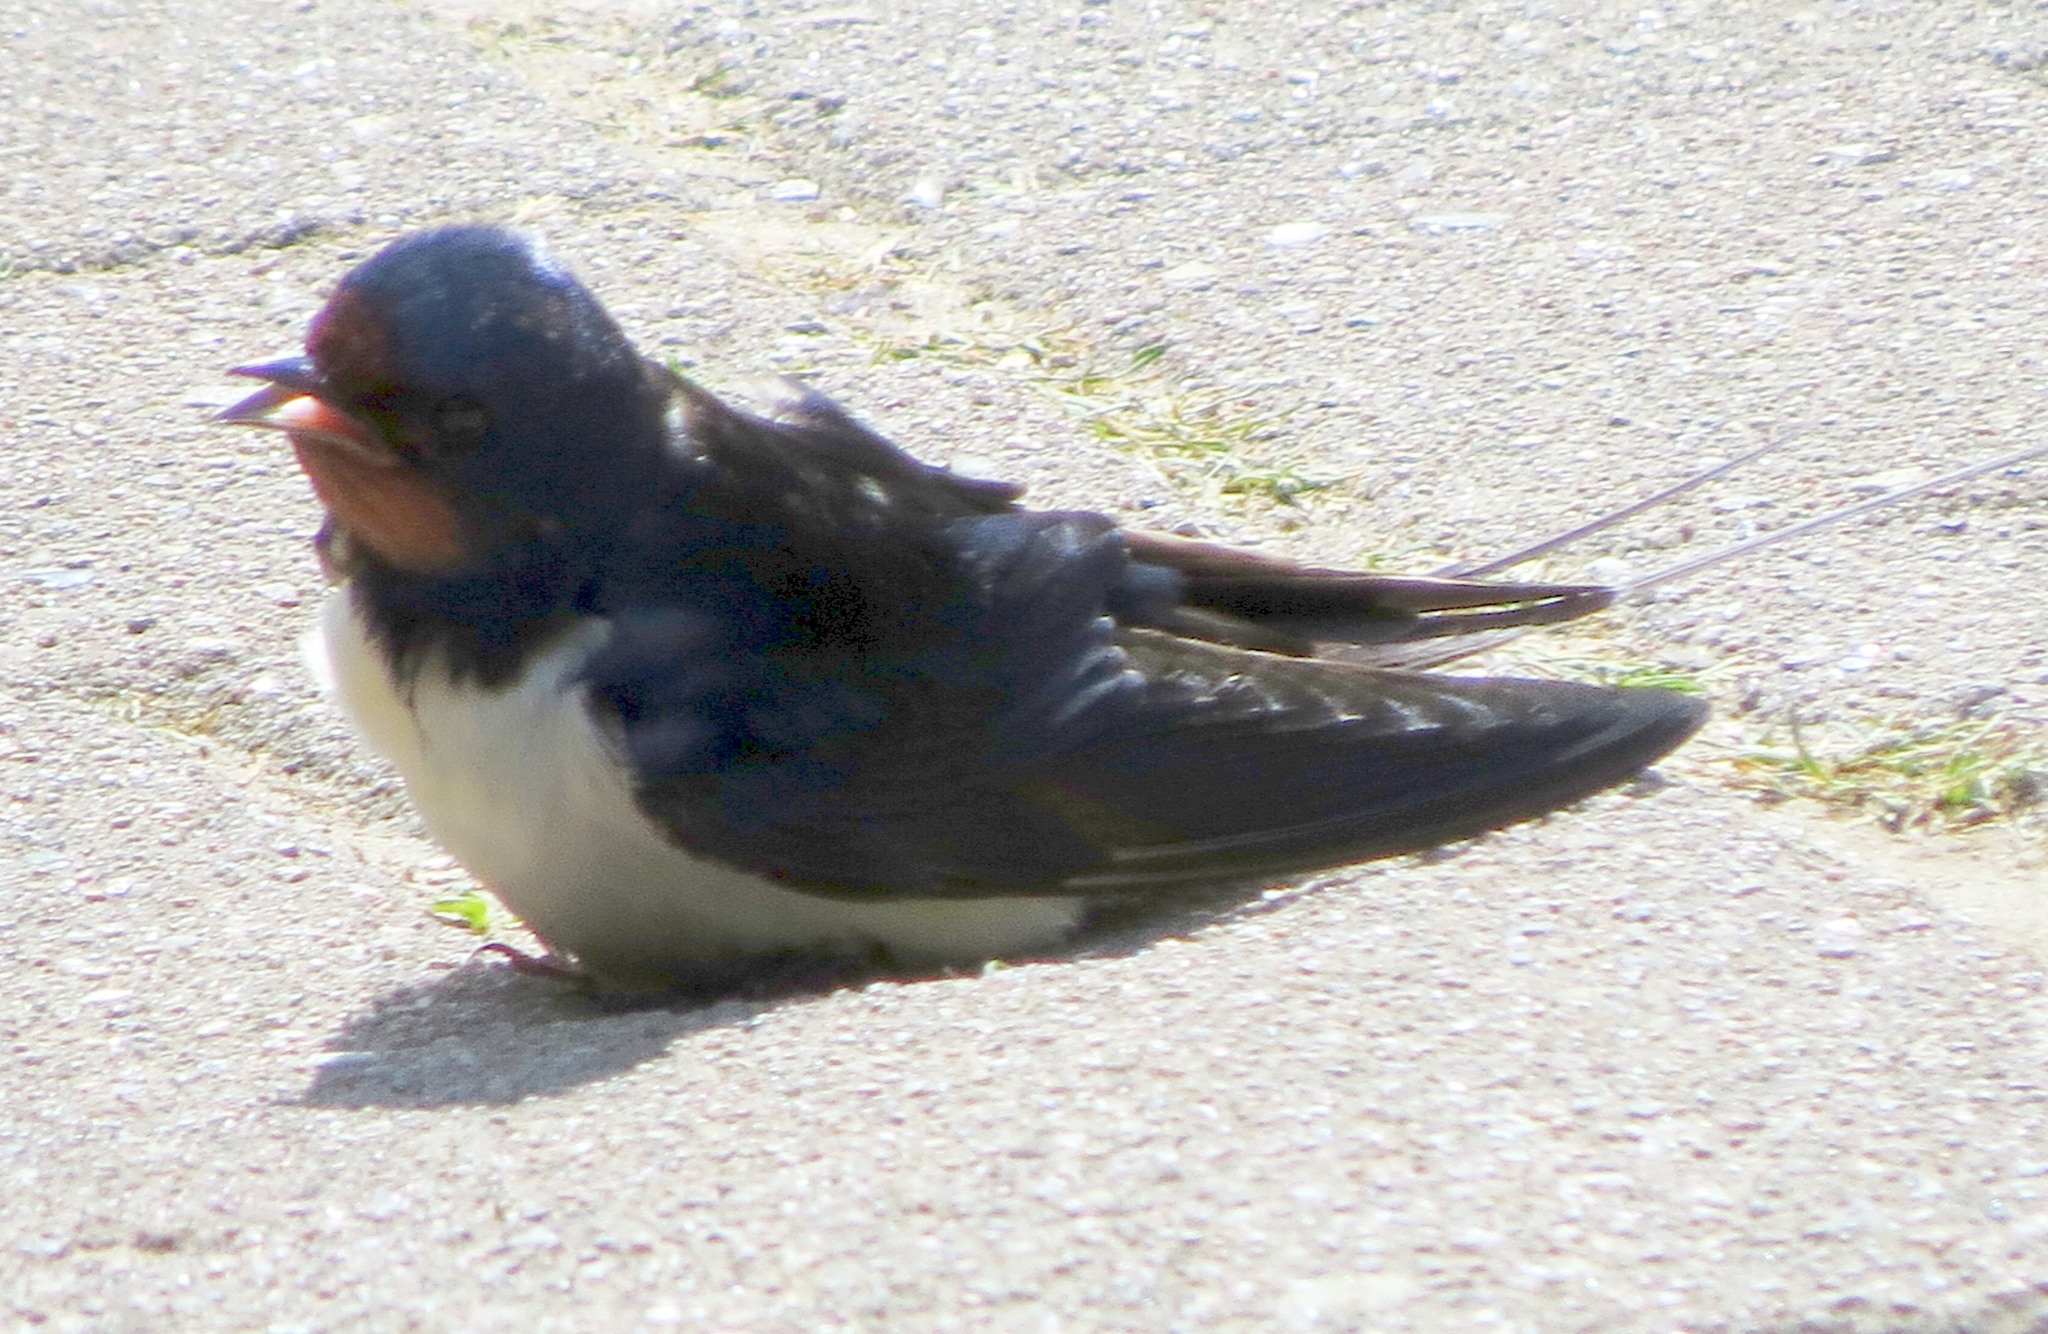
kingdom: Animalia
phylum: Chordata
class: Aves
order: Passeriformes
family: Hirundinidae
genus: Hirundo
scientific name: Hirundo rustica
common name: Barn swallow
